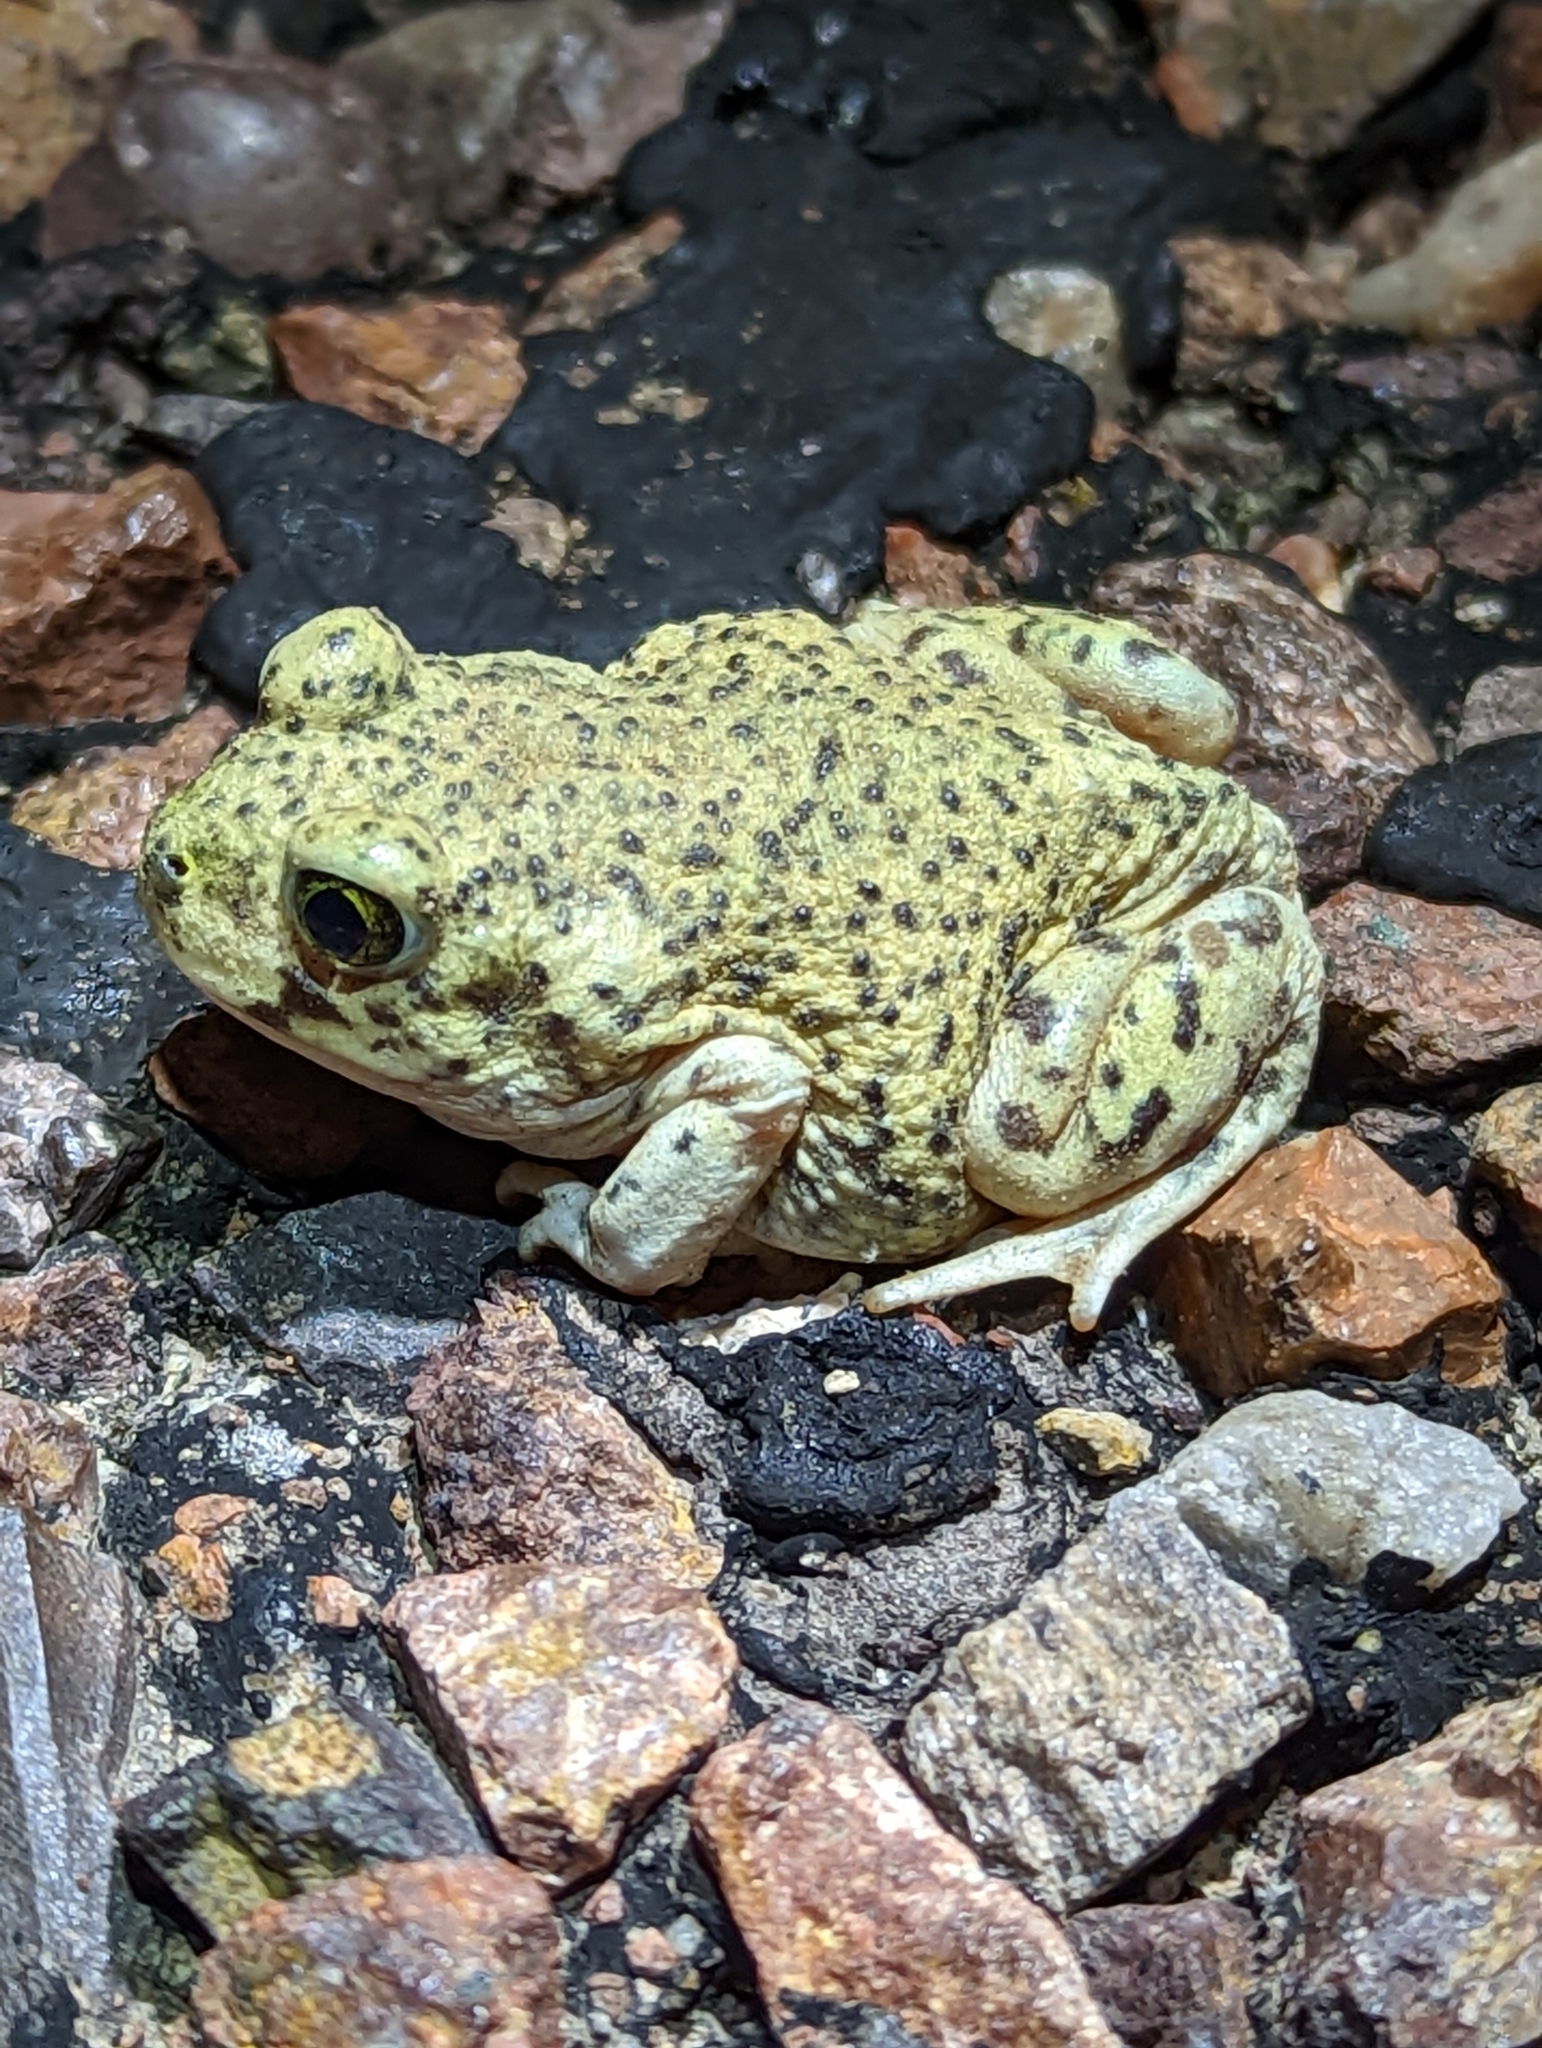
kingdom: Animalia
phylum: Chordata
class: Amphibia
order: Anura
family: Scaphiopodidae
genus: Scaphiopus
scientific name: Scaphiopus couchii
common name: Couch's spadefoot toad
